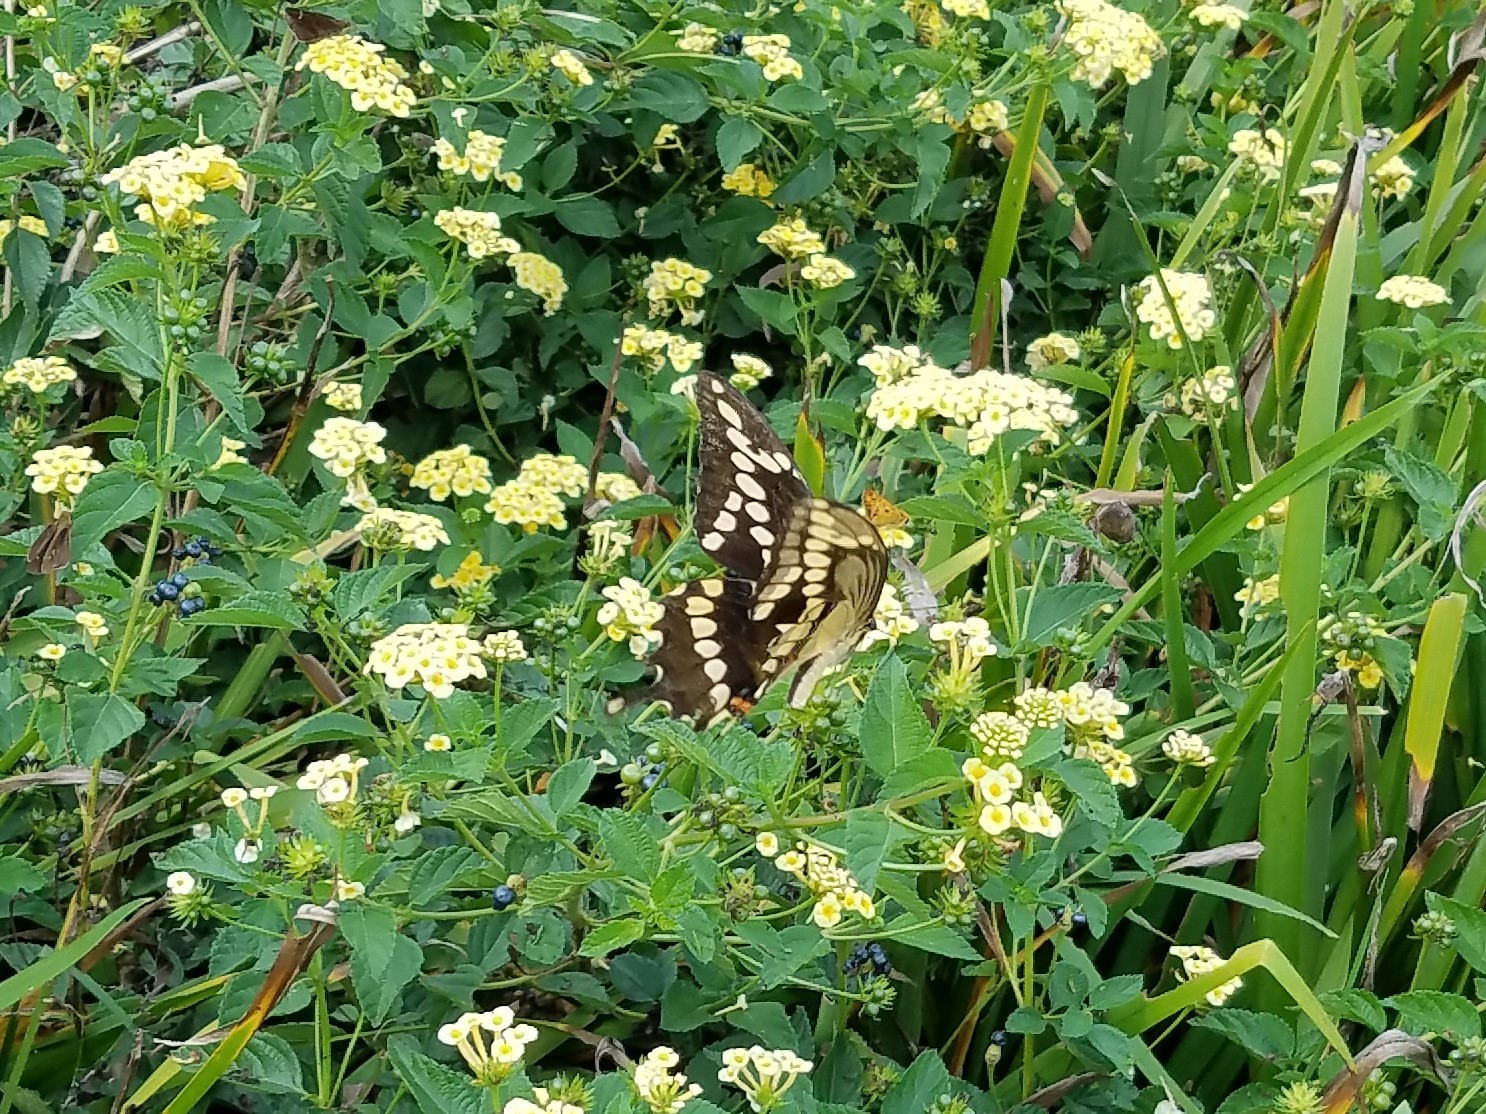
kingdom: Animalia
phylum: Arthropoda
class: Insecta
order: Lepidoptera
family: Papilionidae
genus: Papilio
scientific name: Papilio cresphontes
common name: Giant swallowtail
